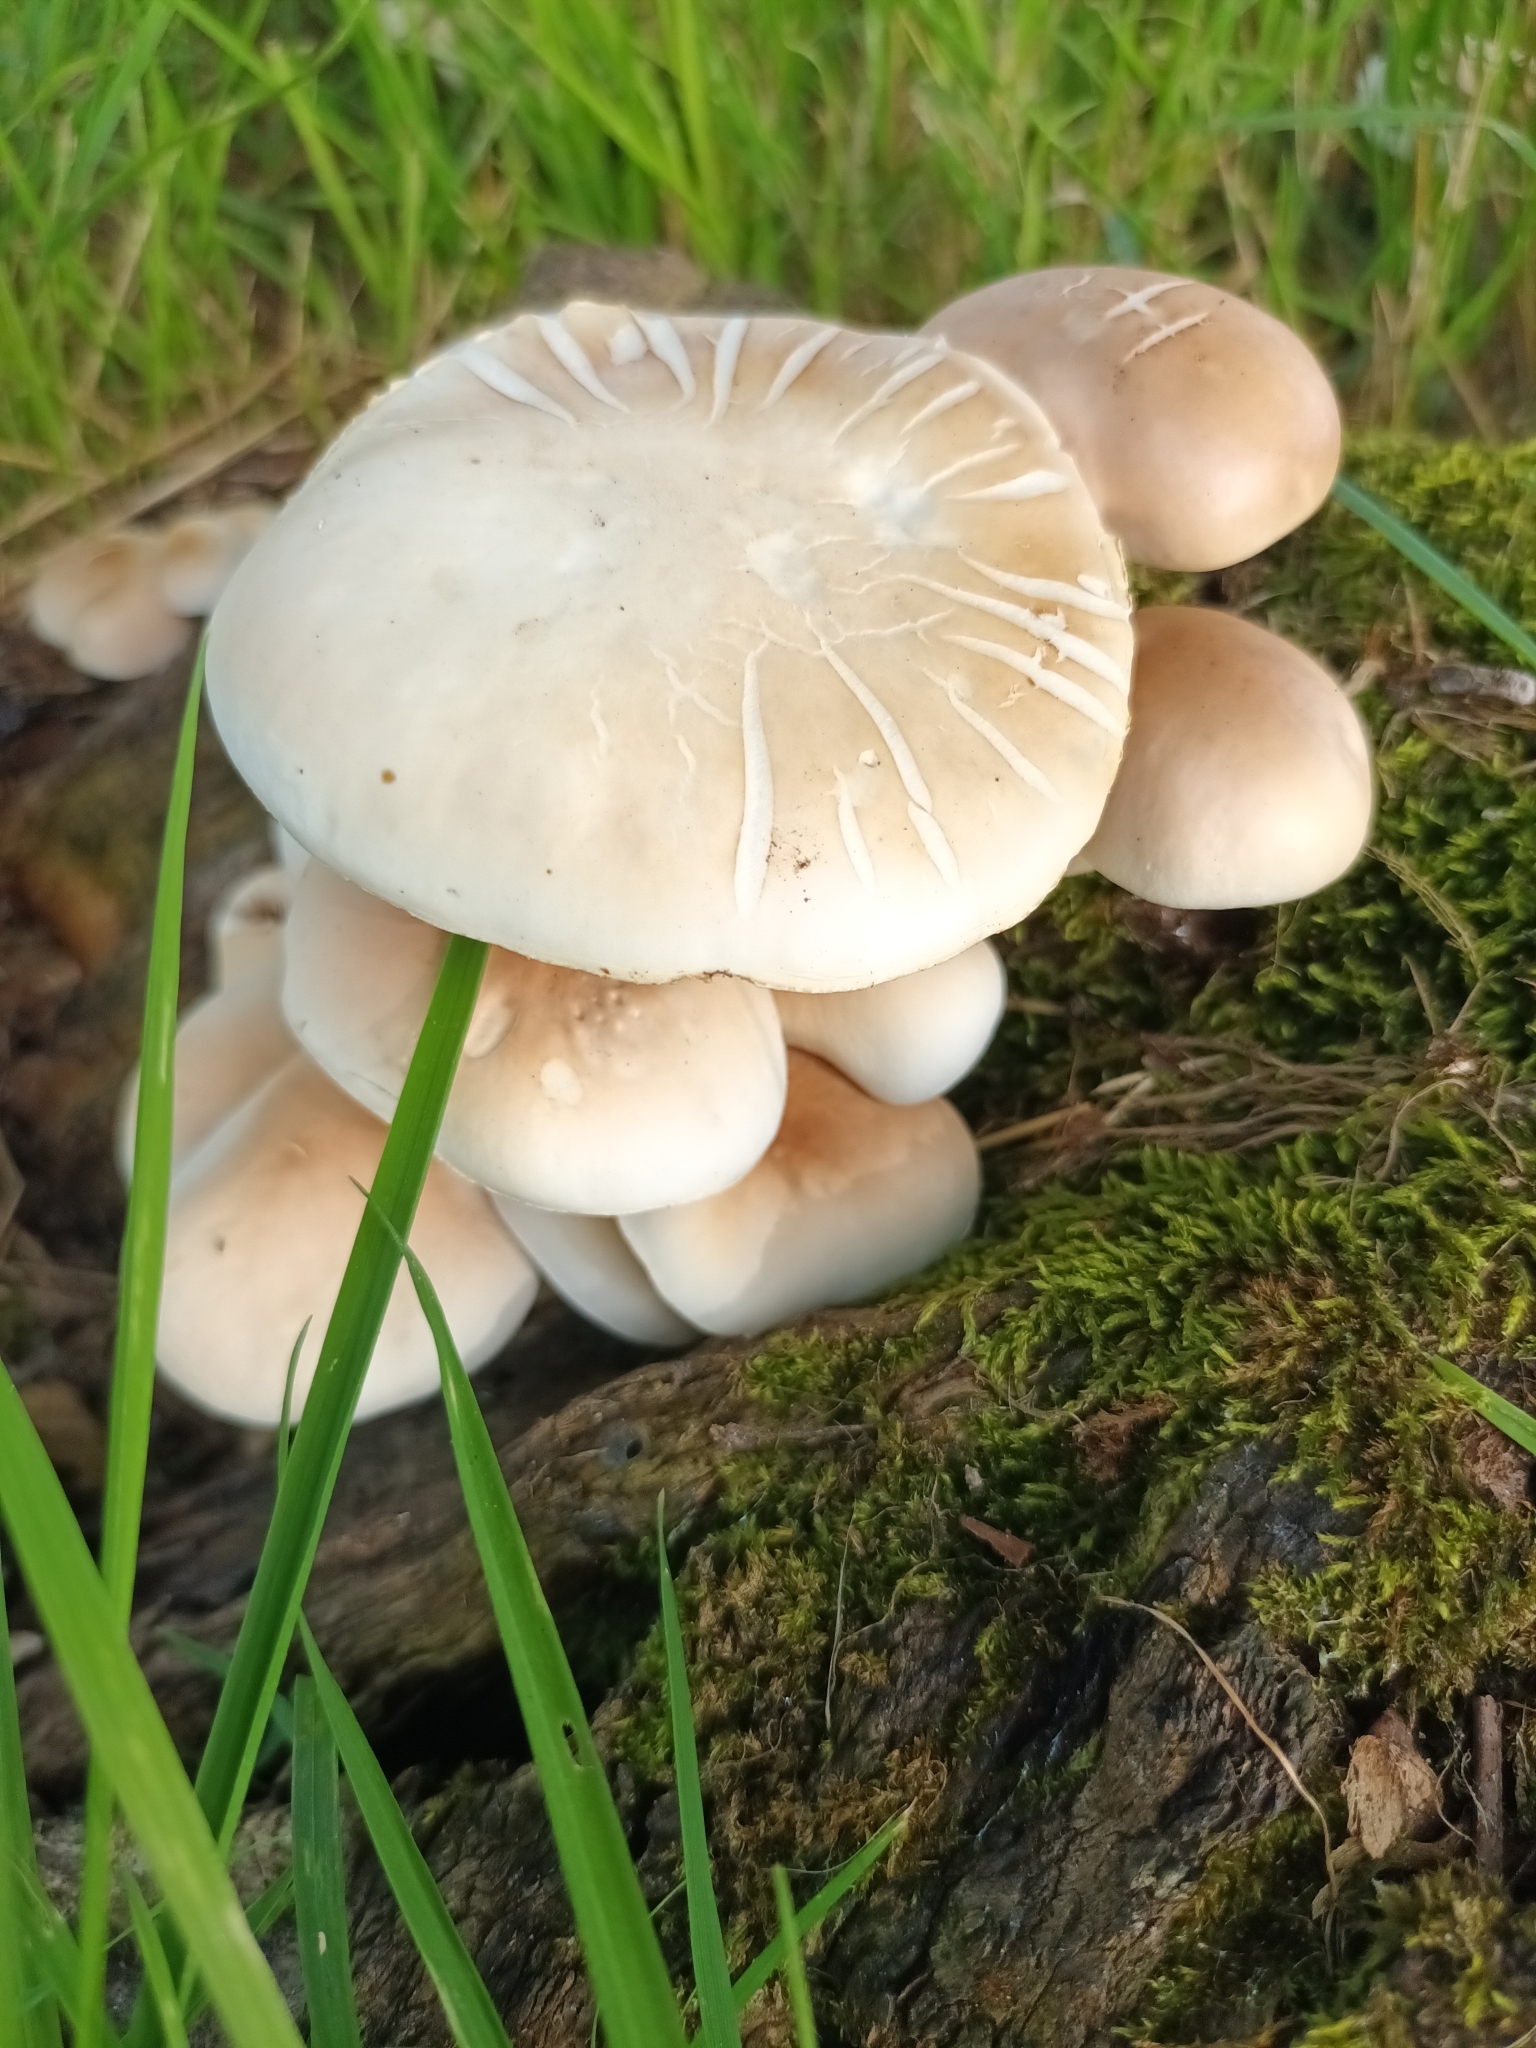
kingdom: Fungi
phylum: Basidiomycota
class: Agaricomycetes
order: Agaricales
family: Tubariaceae
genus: Cyclocybe
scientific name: Cyclocybe cylindracea
